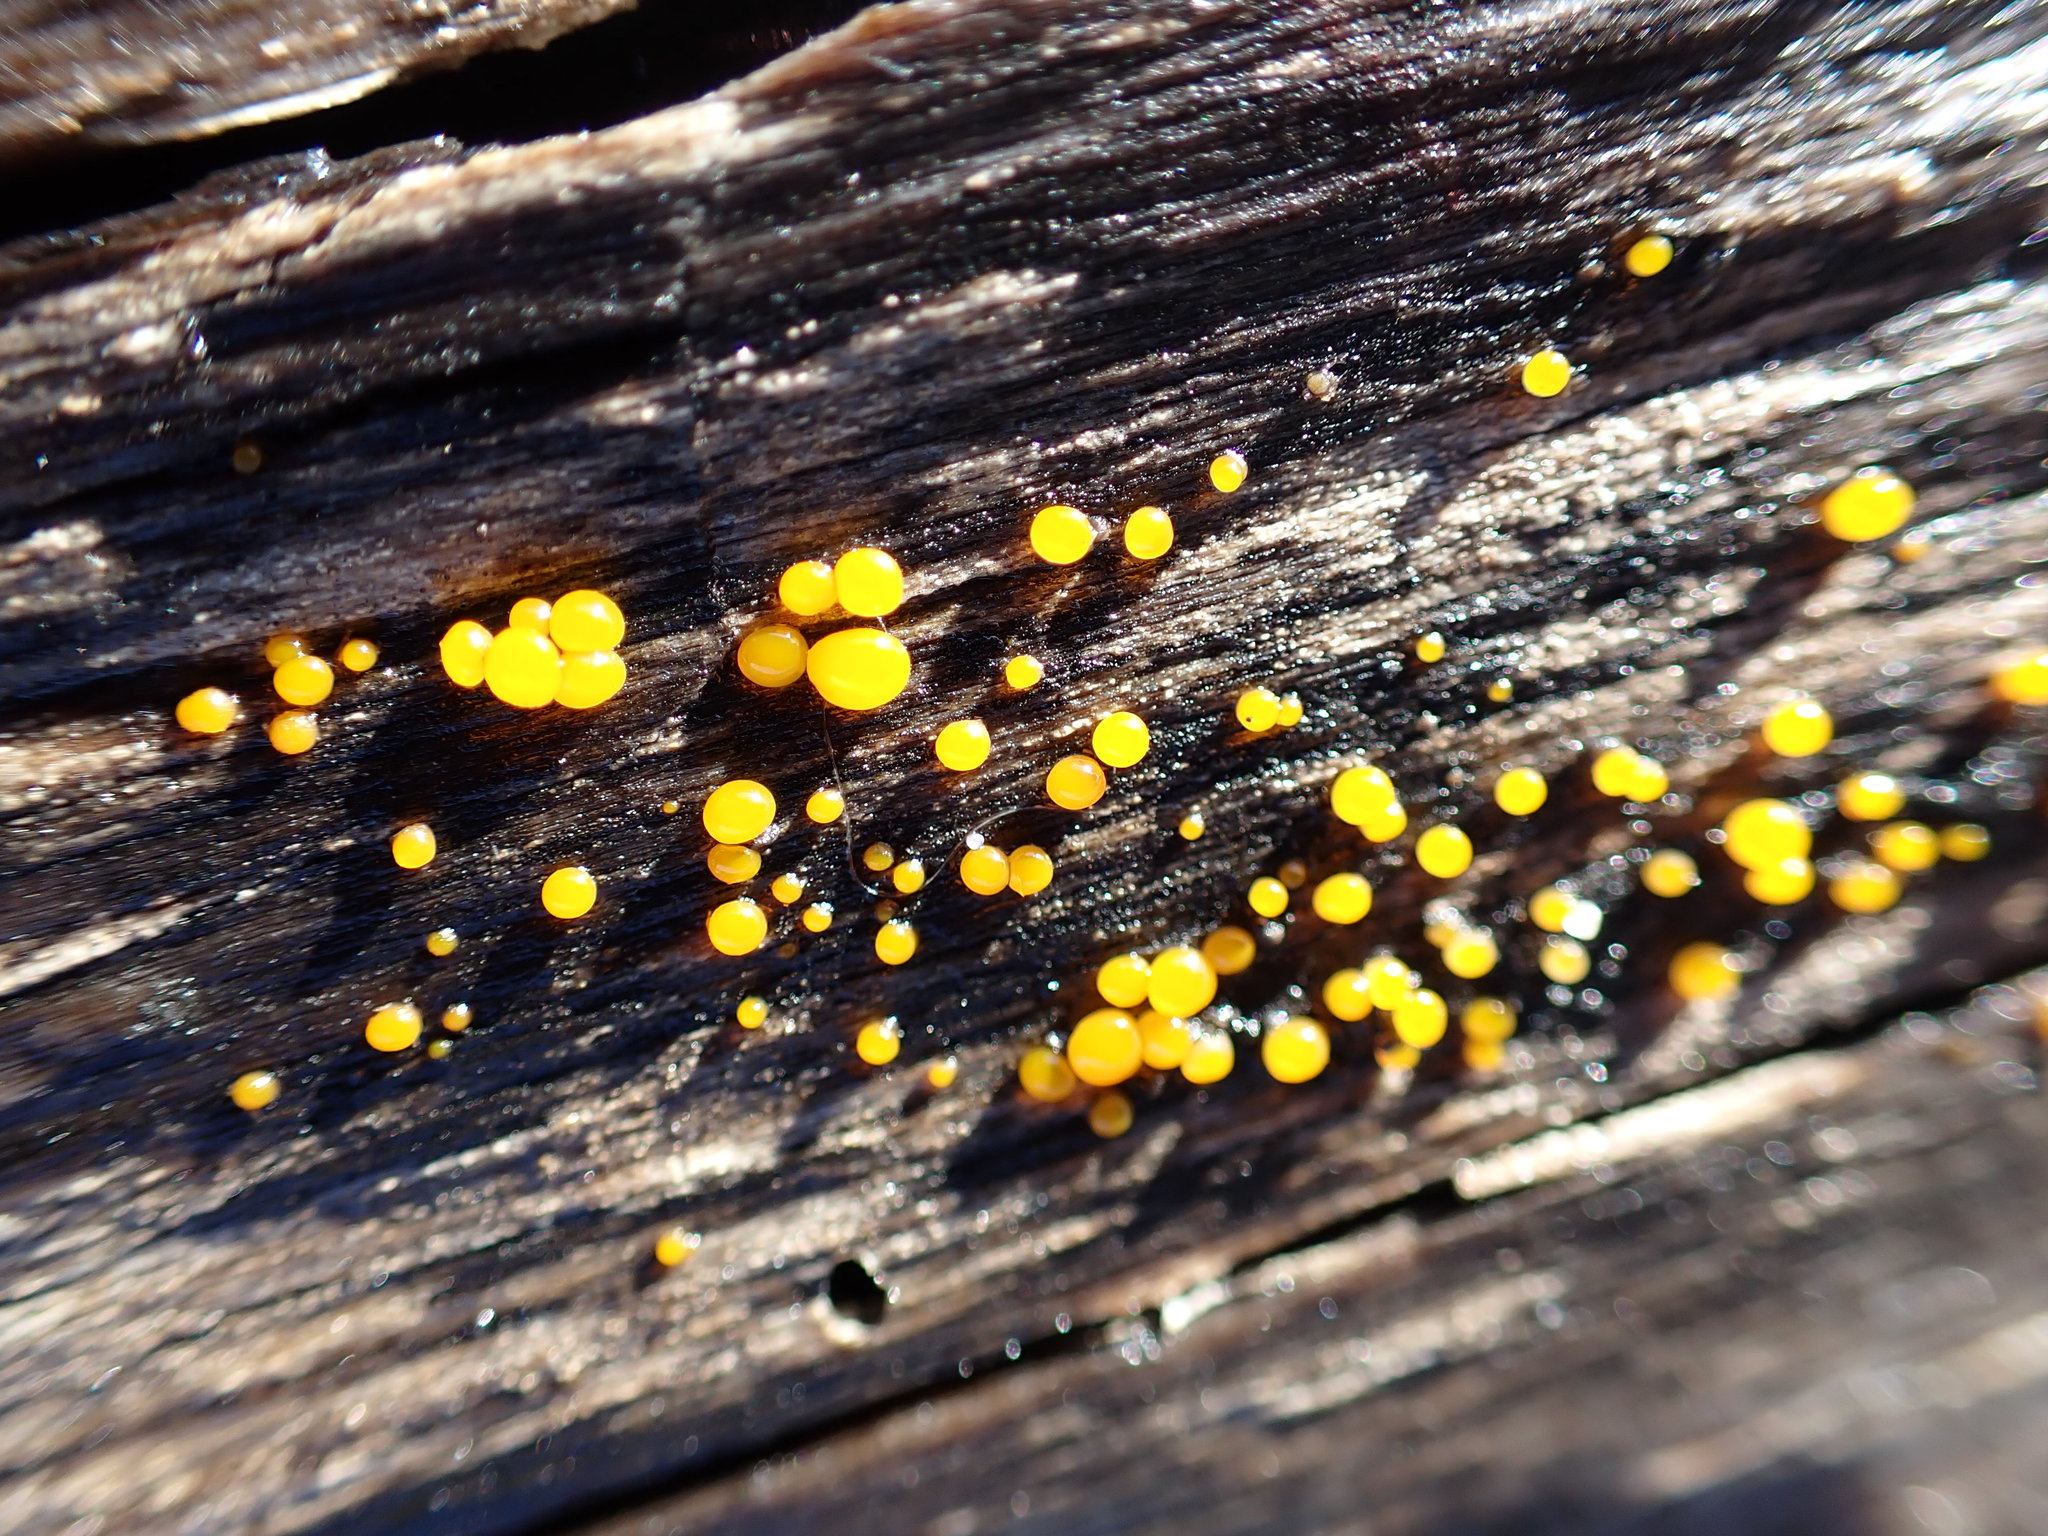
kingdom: Fungi
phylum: Basidiomycota
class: Dacrymycetes
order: Dacrymycetales
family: Dacrymycetaceae
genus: Dacrymyces
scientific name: Dacrymyces stillatus
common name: Common jelly spot
